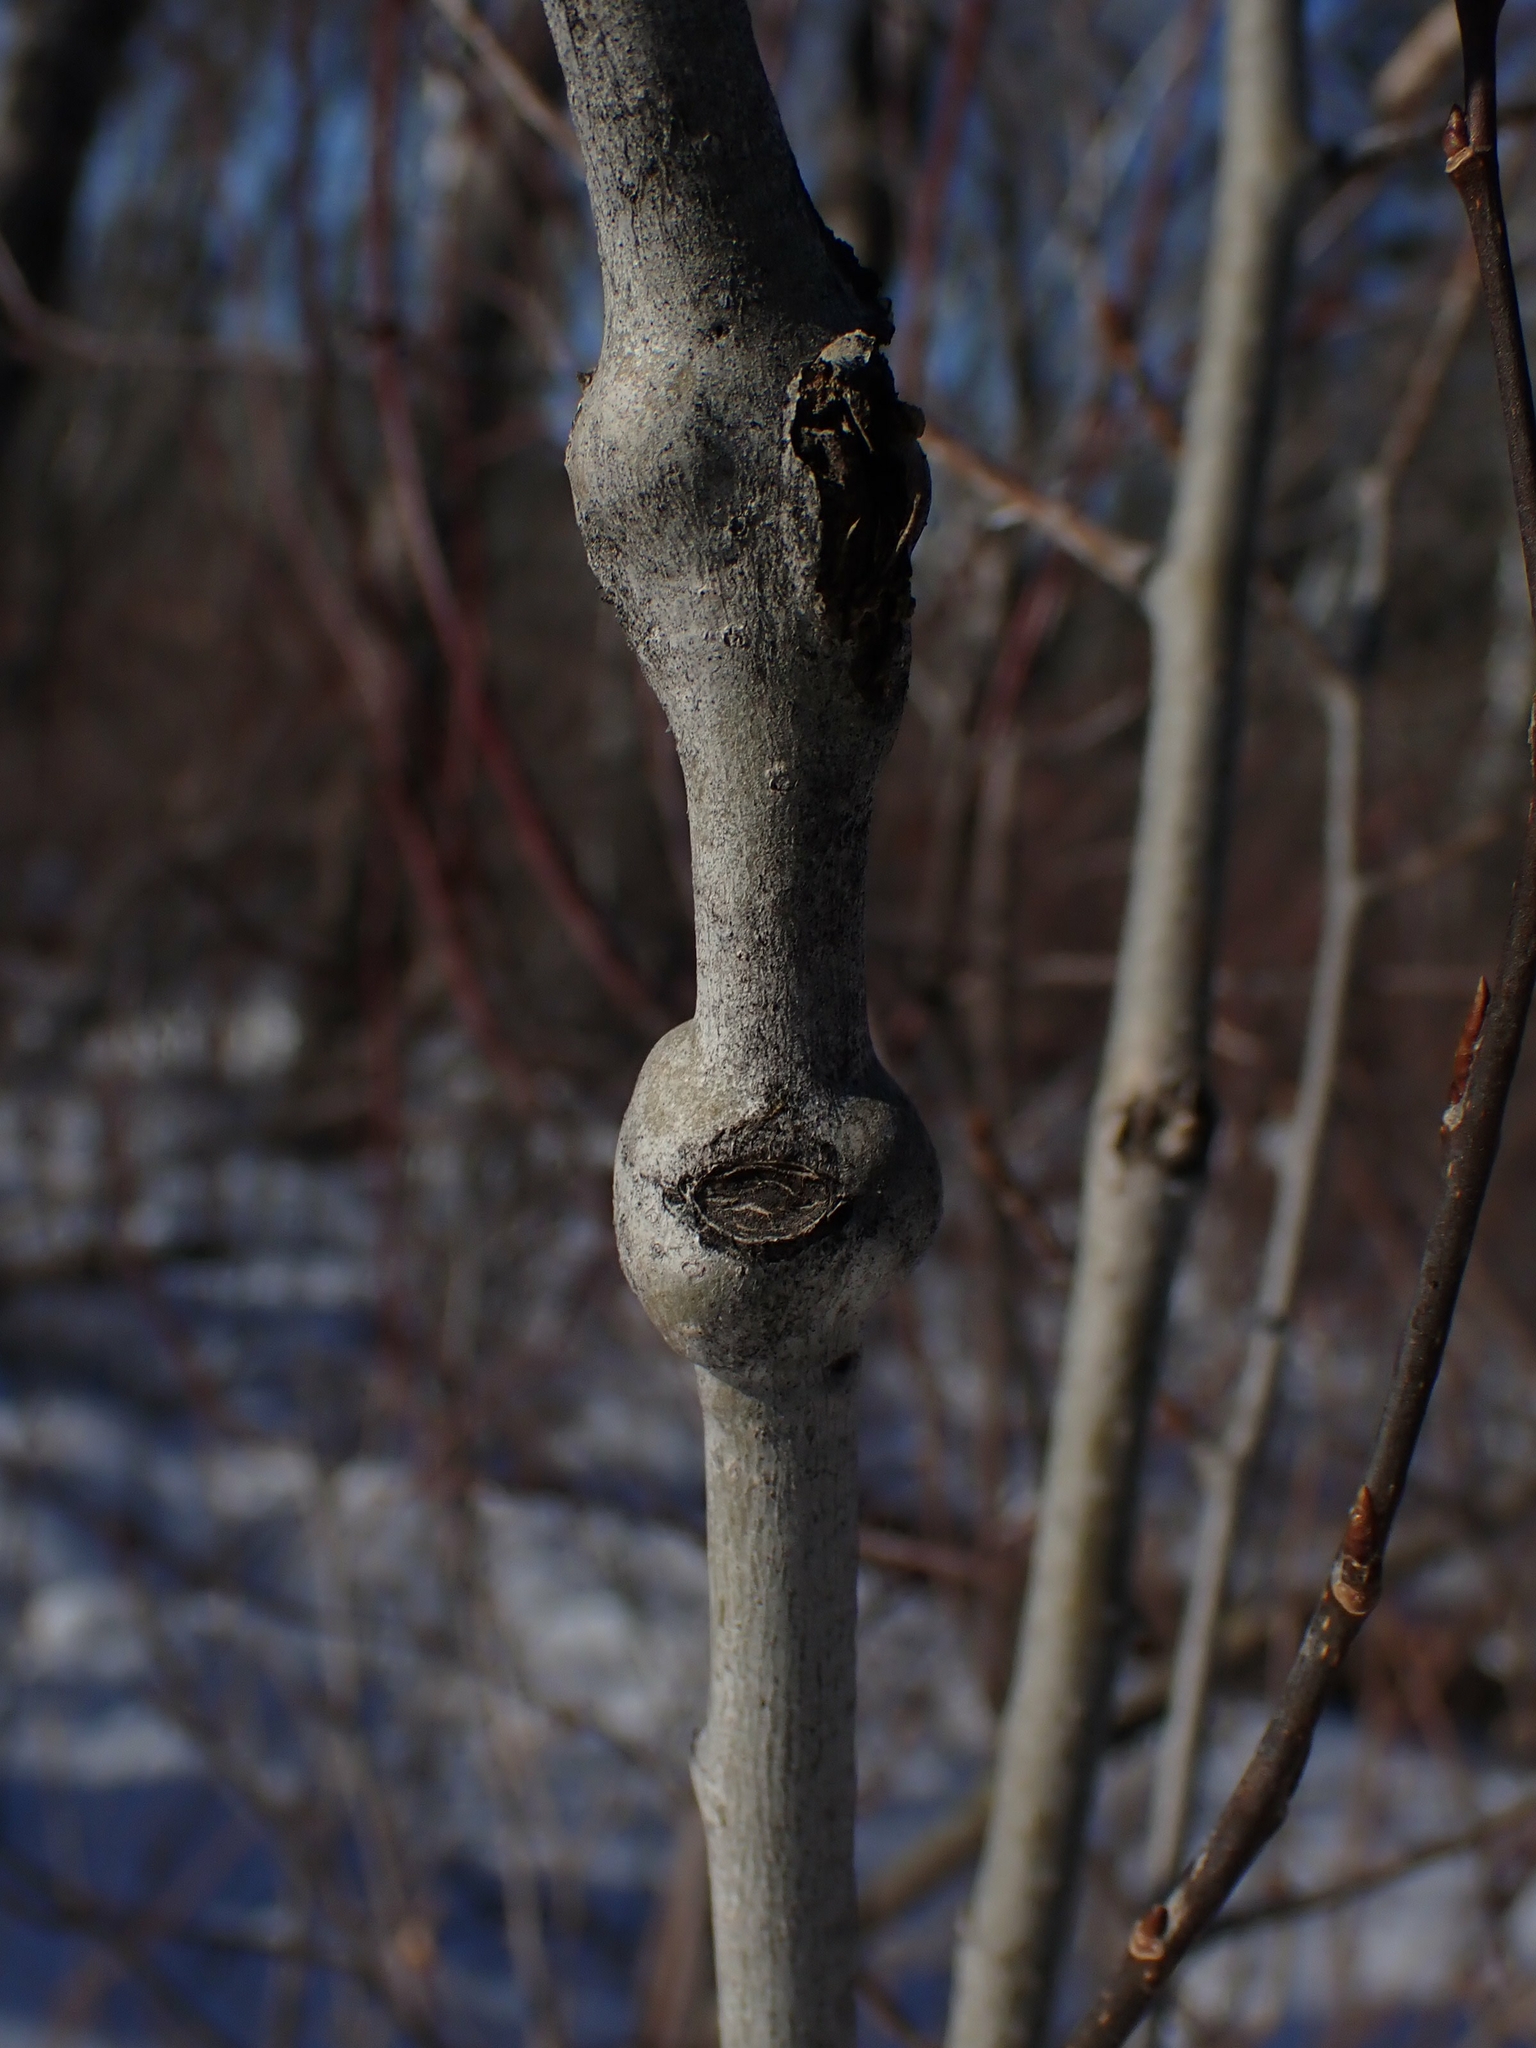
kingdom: Animalia
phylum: Arthropoda
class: Insecta
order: Diptera
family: Agromyzidae
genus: Euhexomyza
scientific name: Euhexomyza schineri
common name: Poplar twiggall fly
